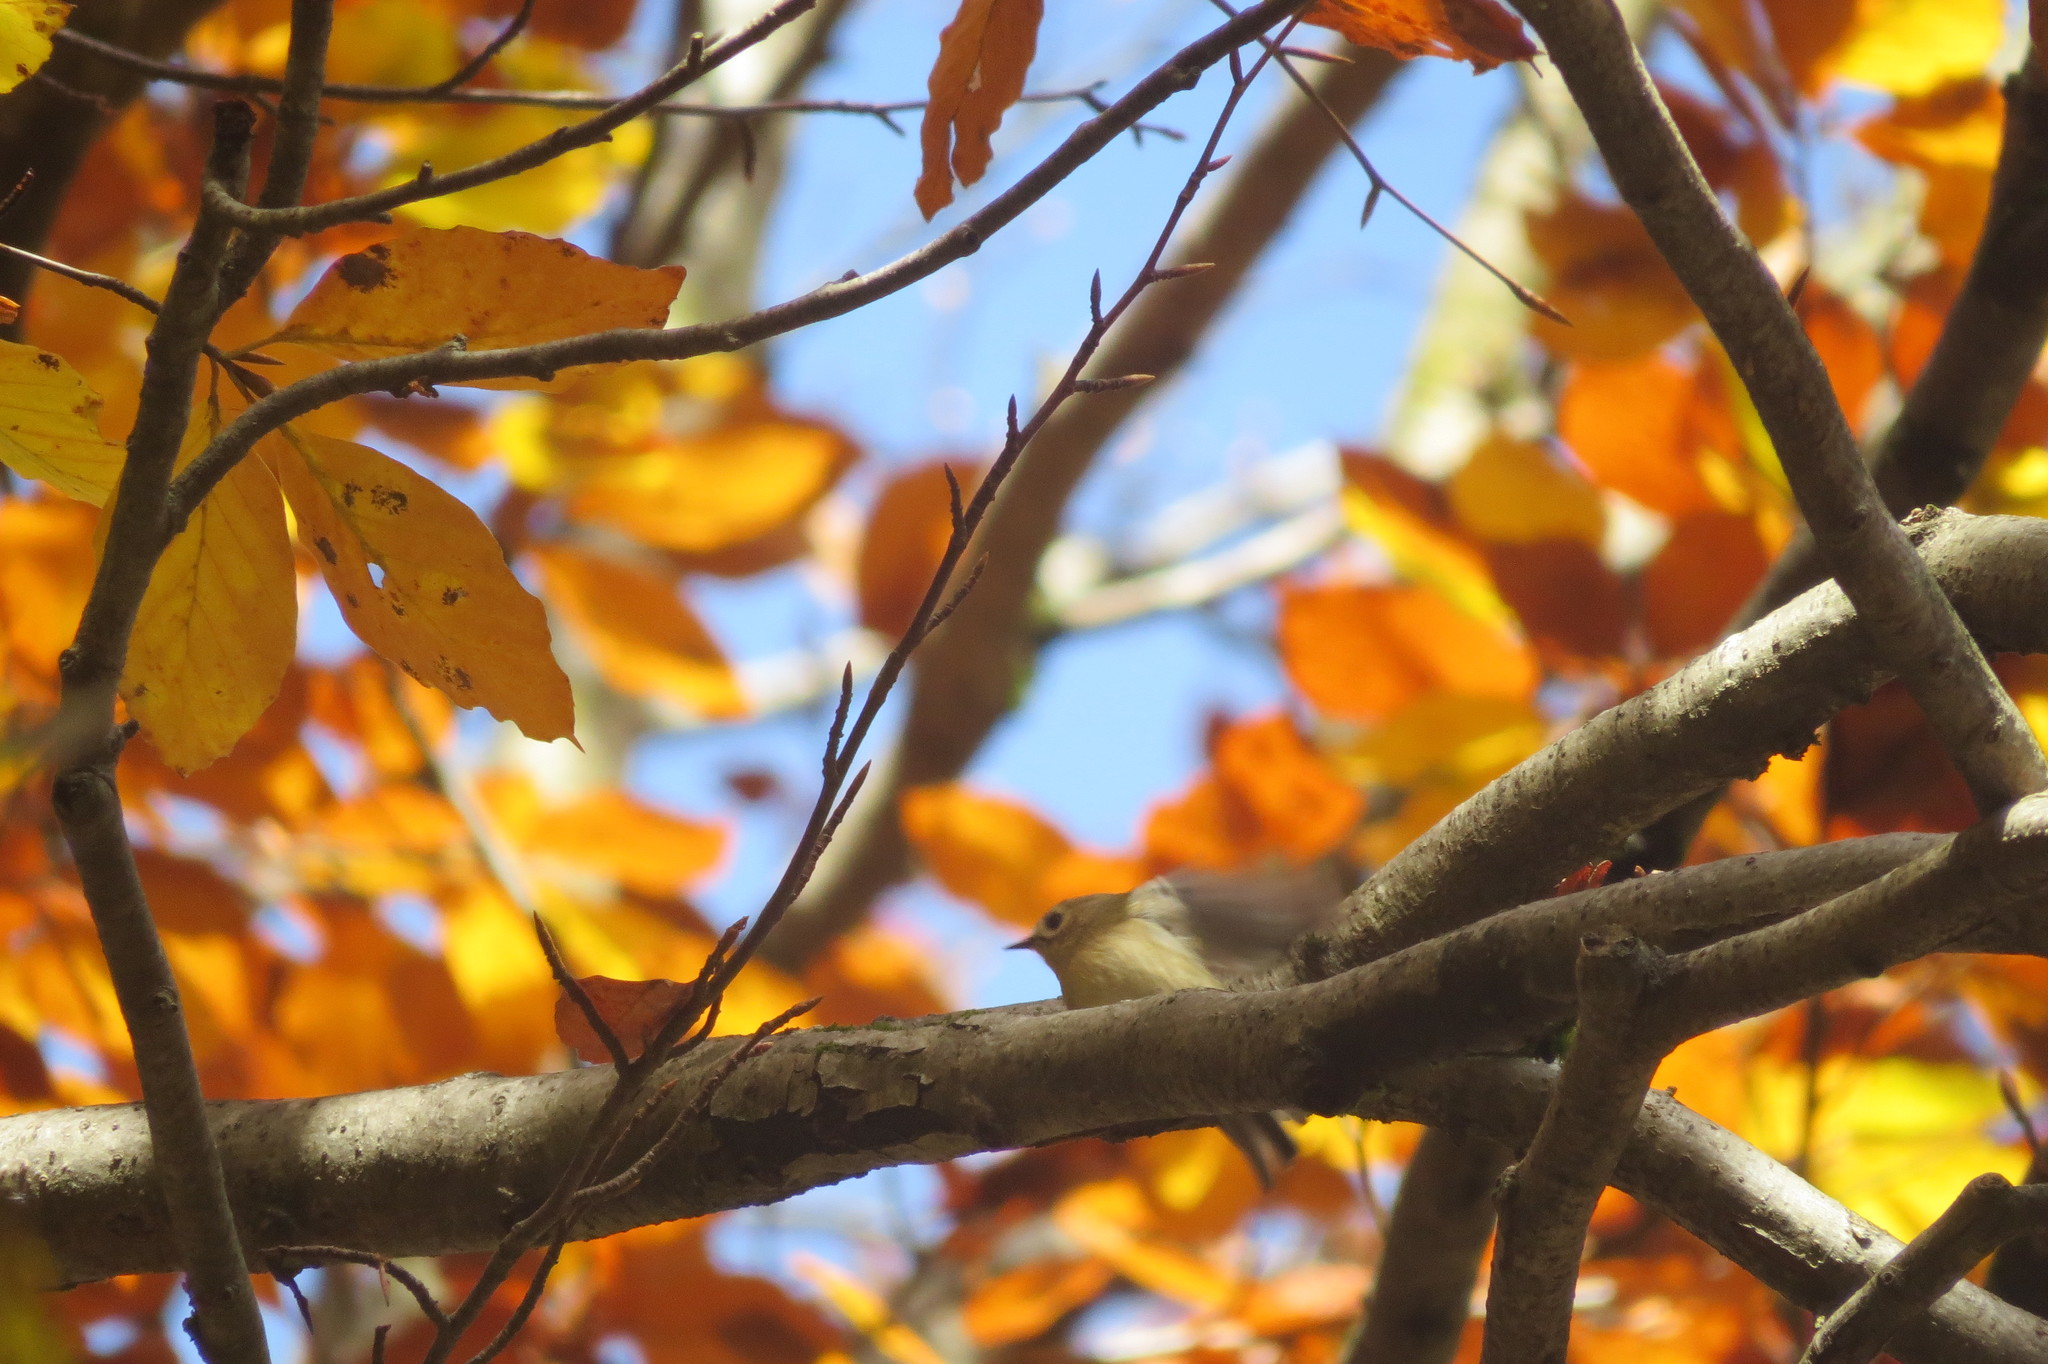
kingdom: Animalia
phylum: Chordata
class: Aves
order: Passeriformes
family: Regulidae
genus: Regulus
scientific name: Regulus regulus
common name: Goldcrest
